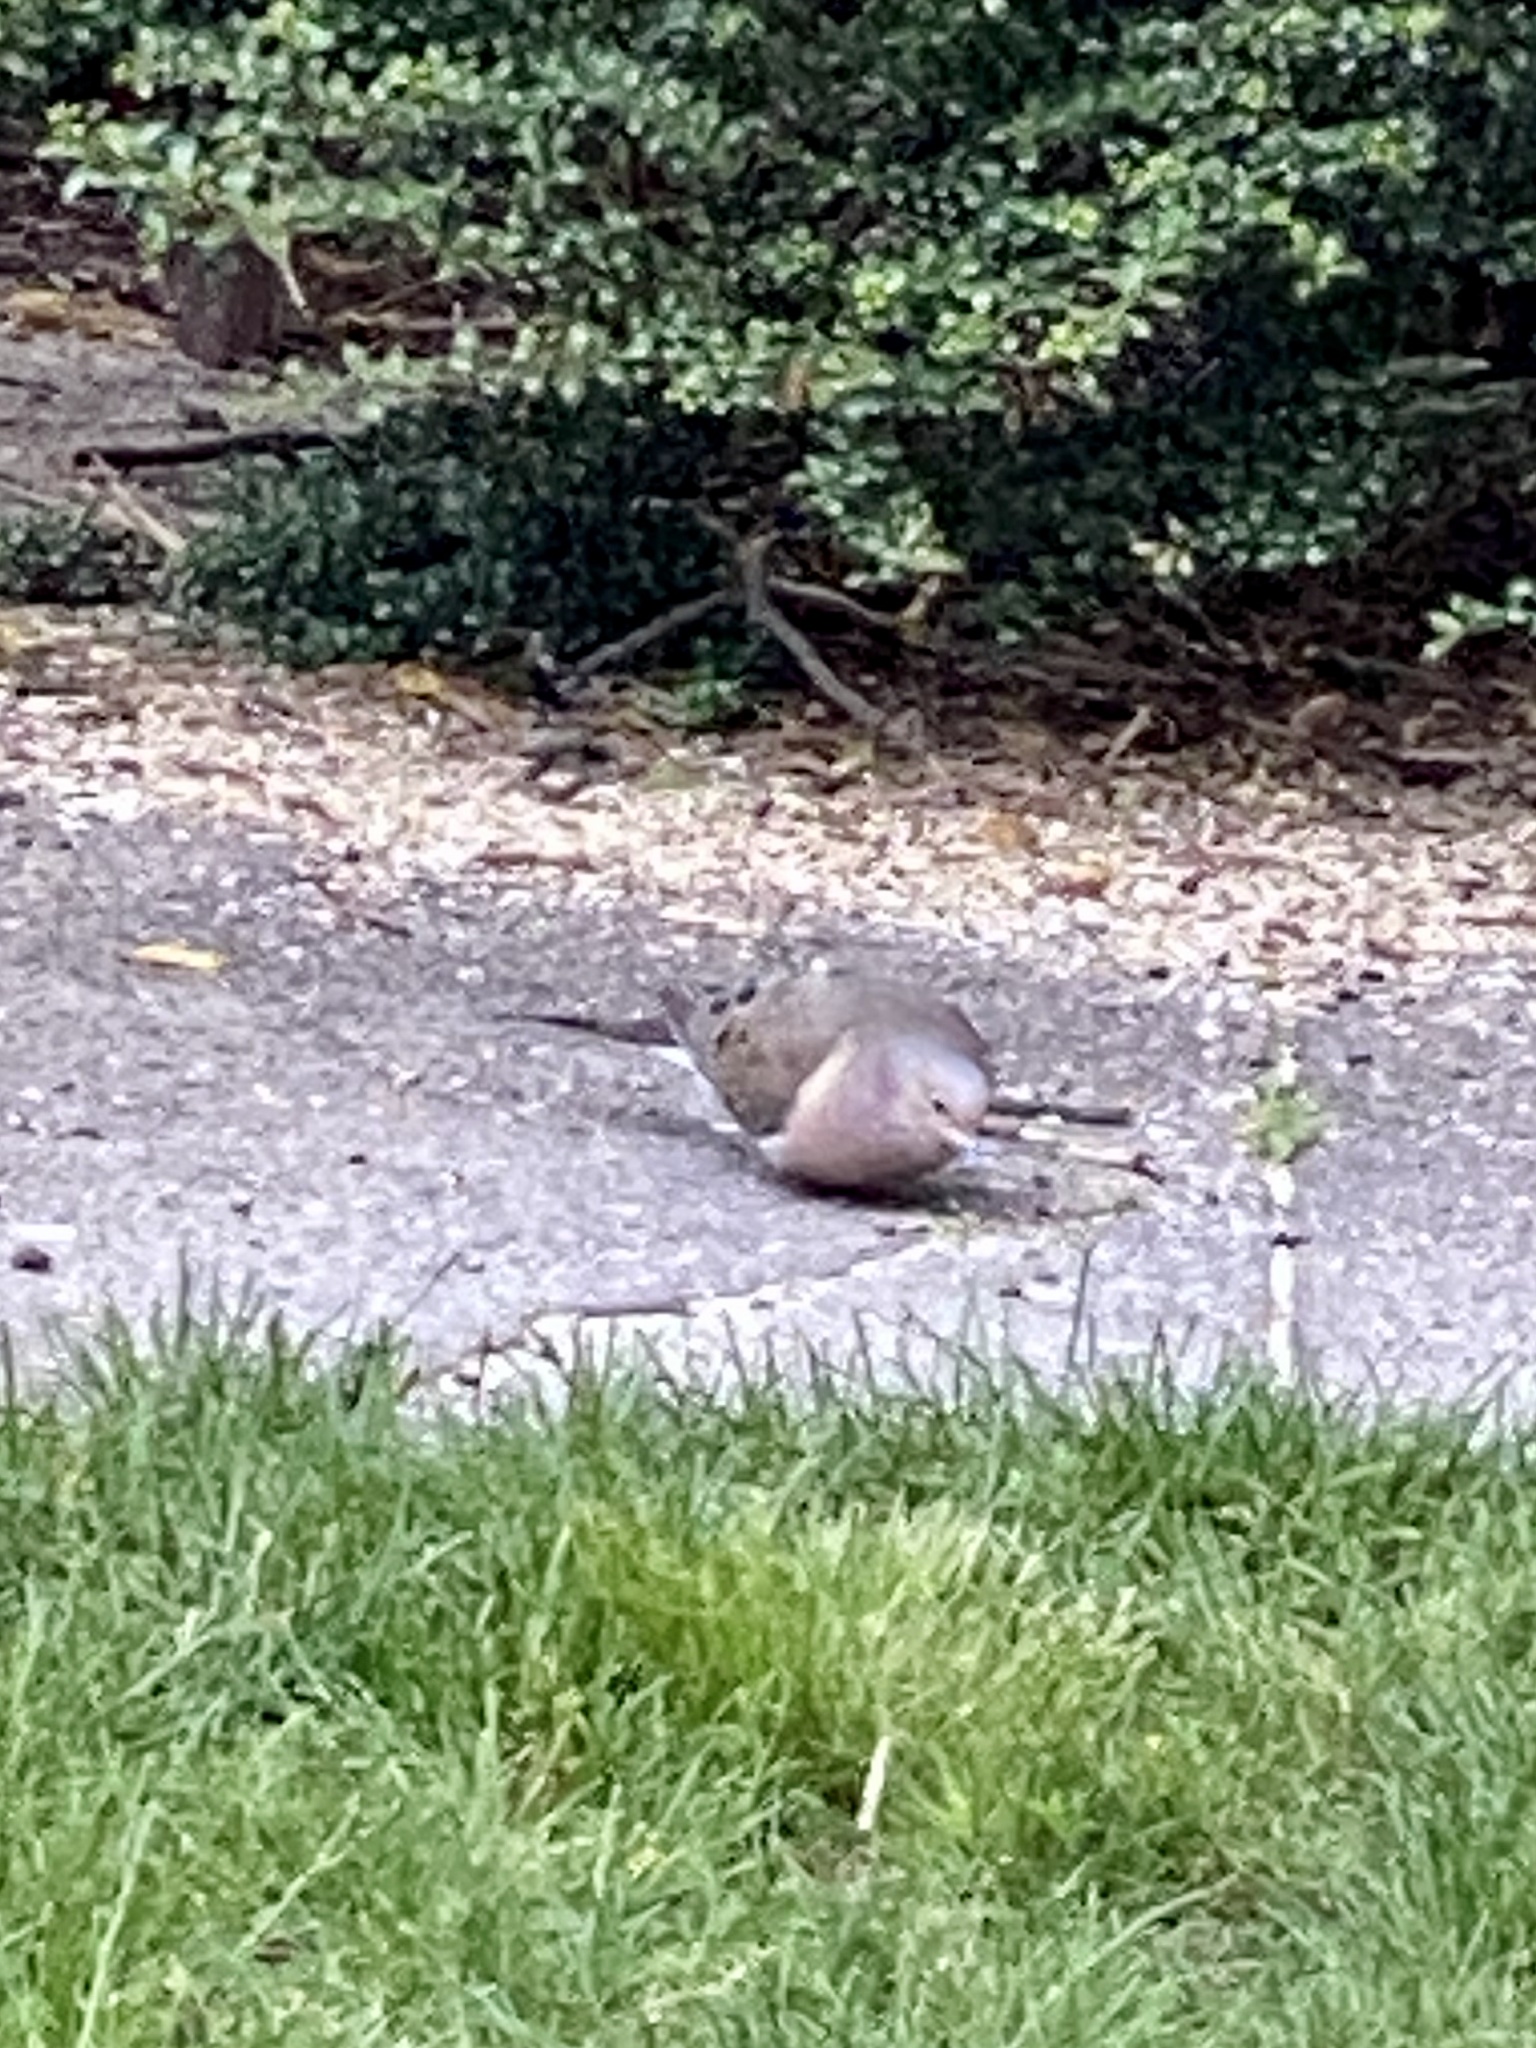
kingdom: Animalia
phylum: Chordata
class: Aves
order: Columbiformes
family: Columbidae
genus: Zenaida
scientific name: Zenaida macroura
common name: Mourning dove
